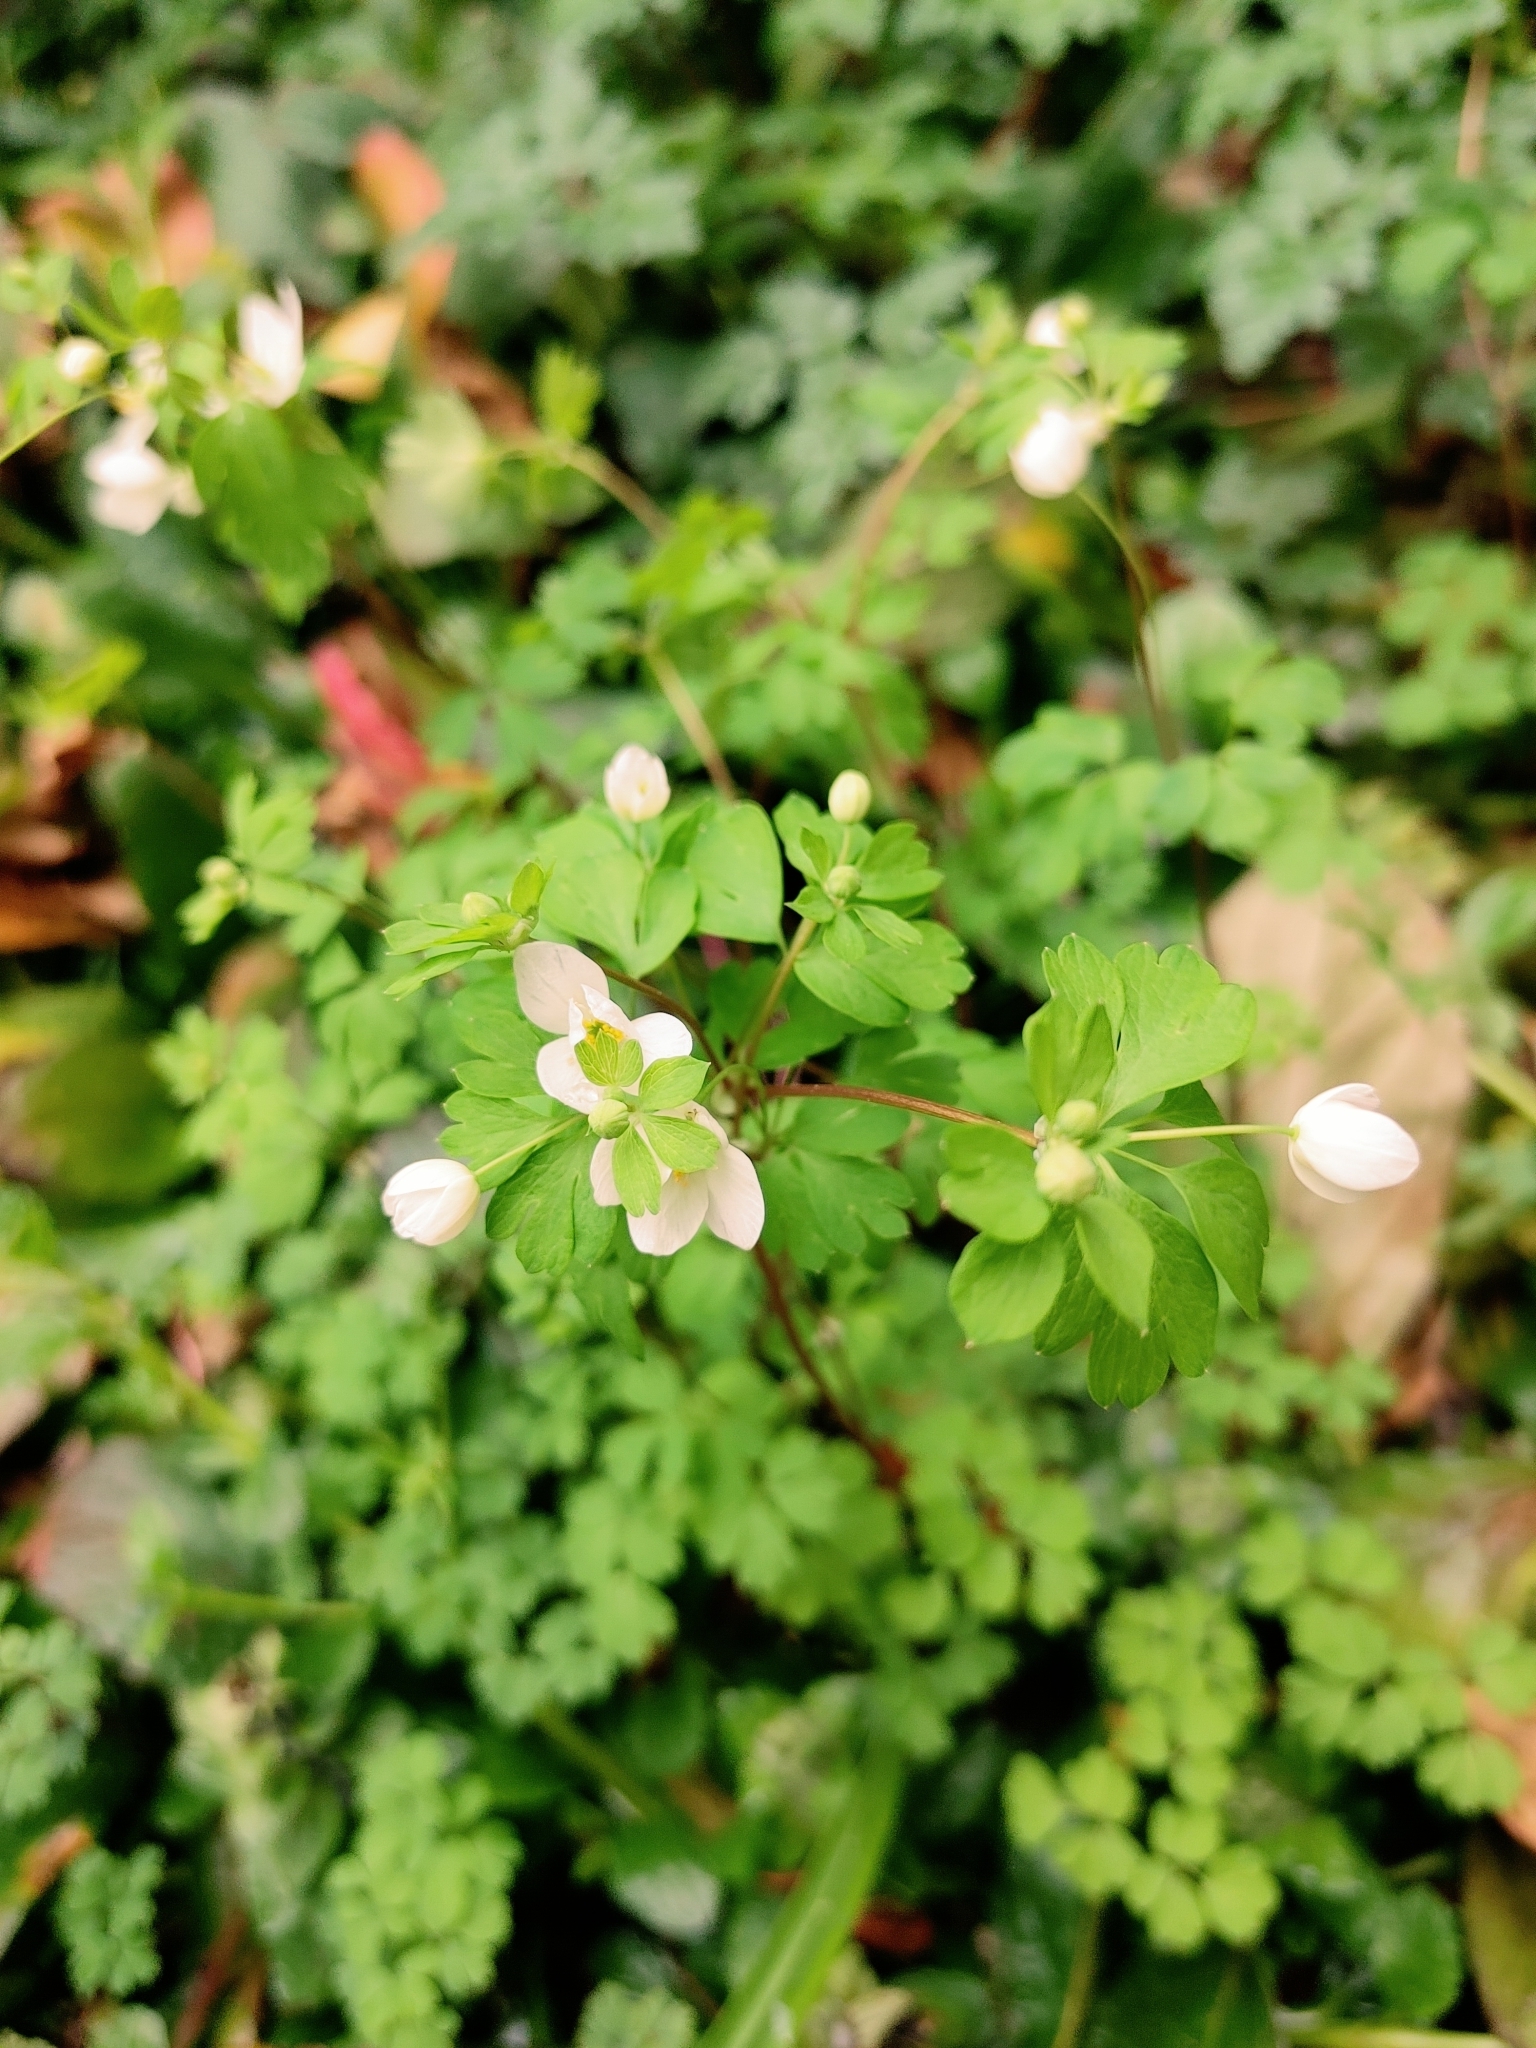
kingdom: Plantae
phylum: Tracheophyta
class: Magnoliopsida
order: Ranunculales
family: Ranunculaceae
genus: Enemion
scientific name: Enemion biternatum
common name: Eastern false rue-anemone
